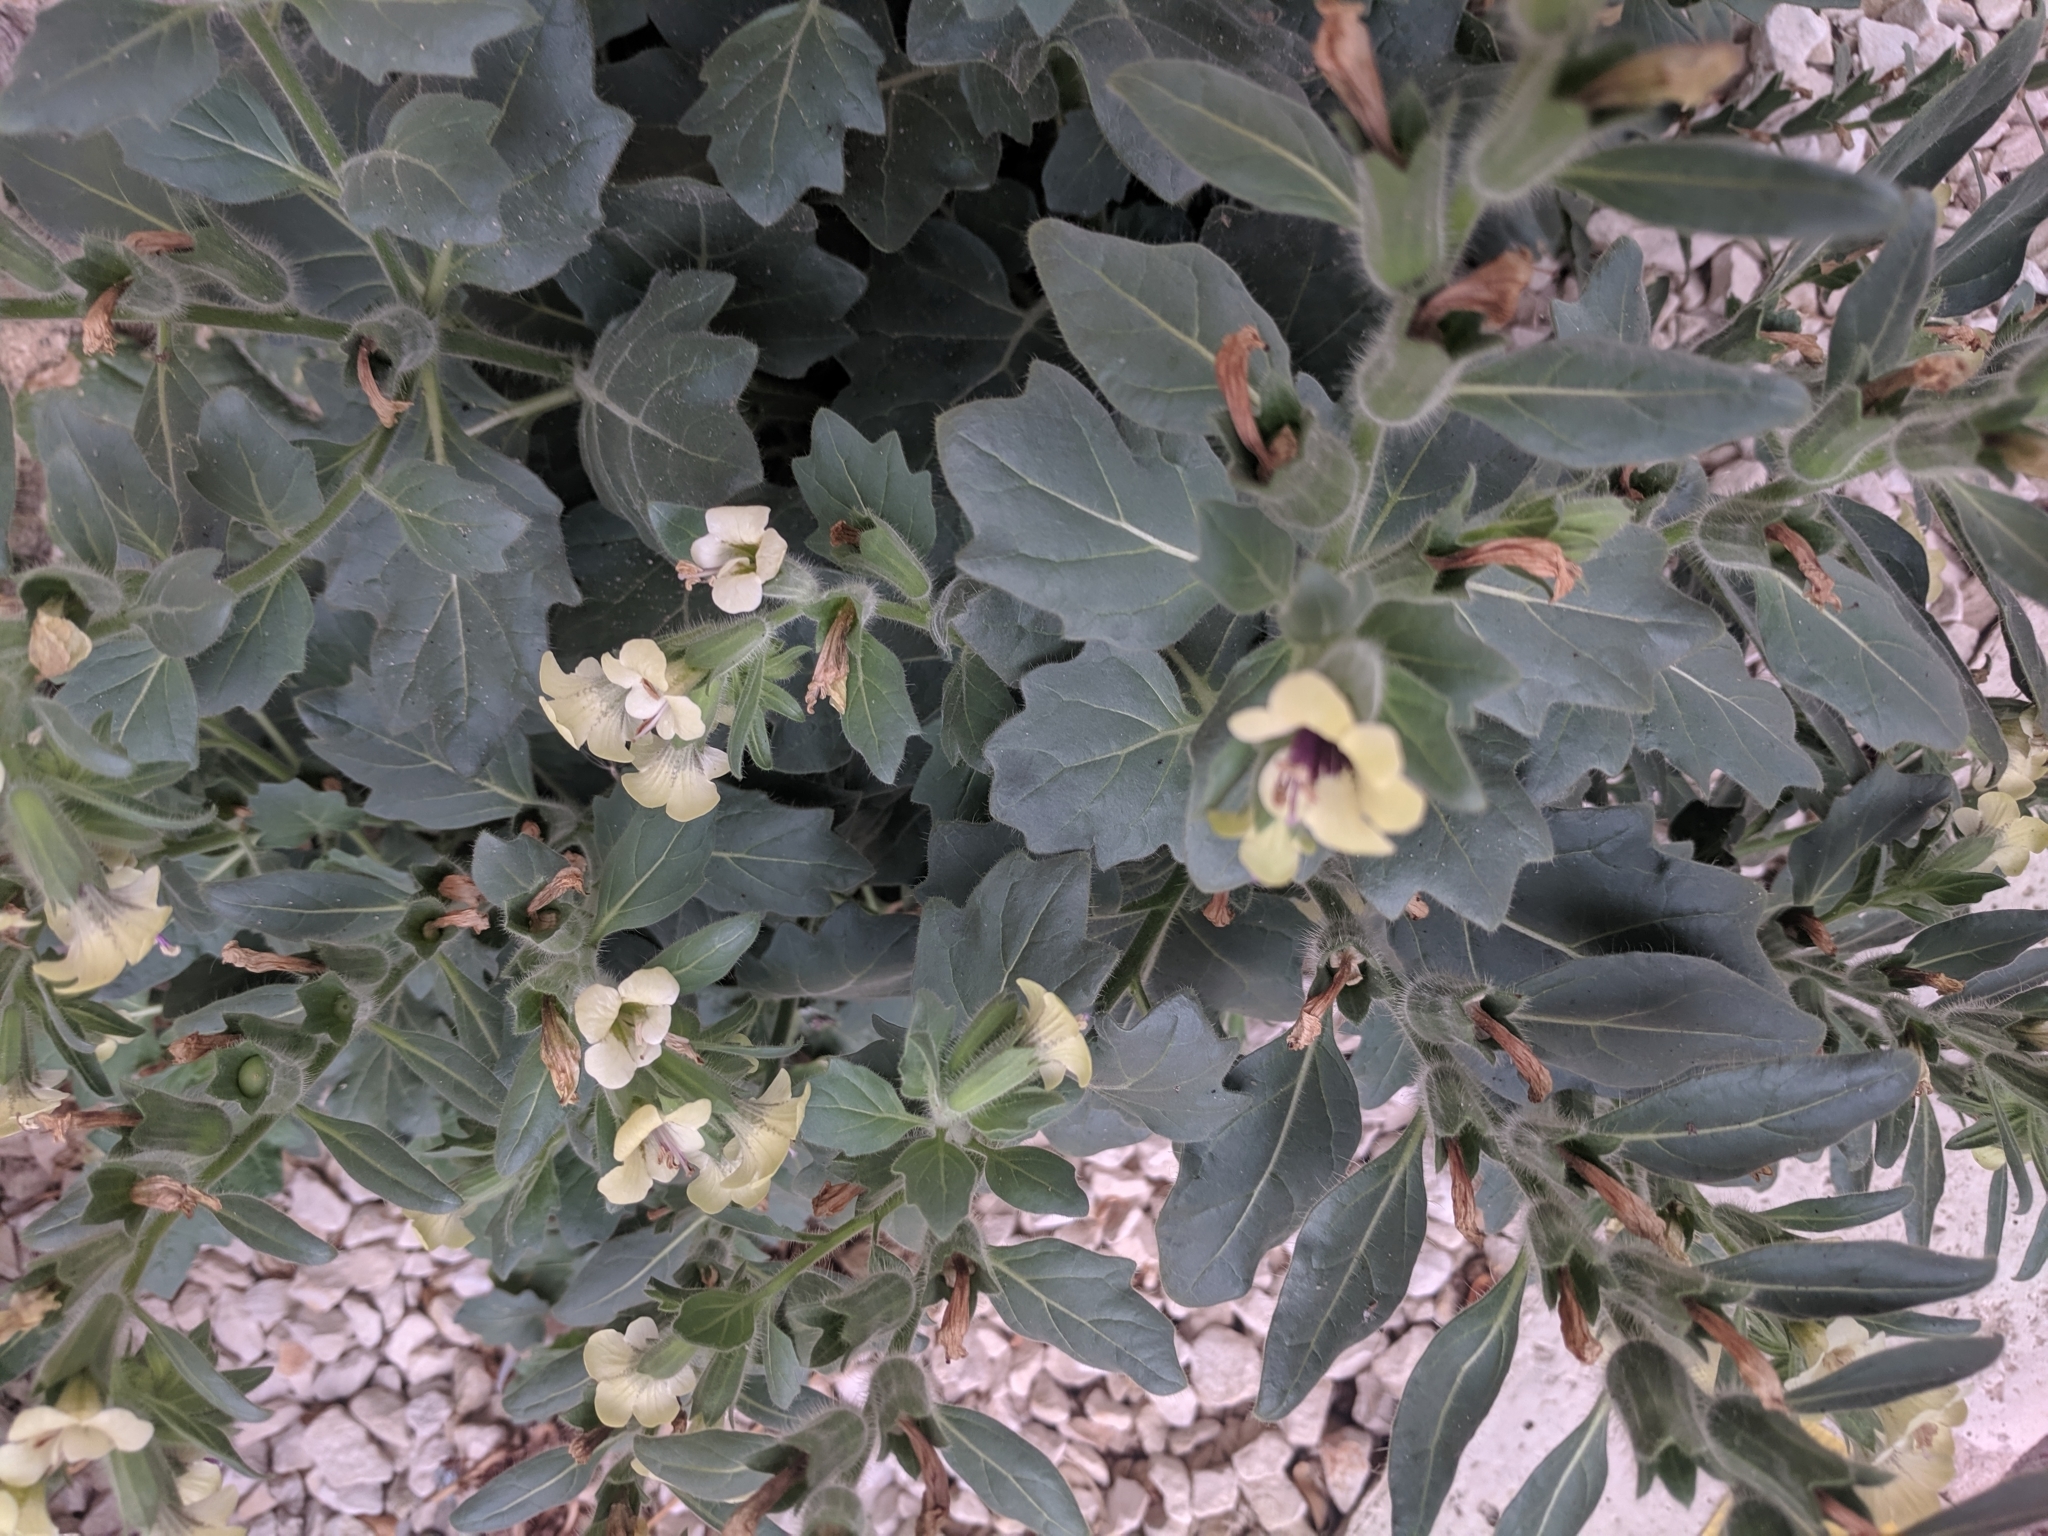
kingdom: Plantae
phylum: Tracheophyta
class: Magnoliopsida
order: Solanales
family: Solanaceae
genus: Hyoscyamus
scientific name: Hyoscyamus albus
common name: White henbane
